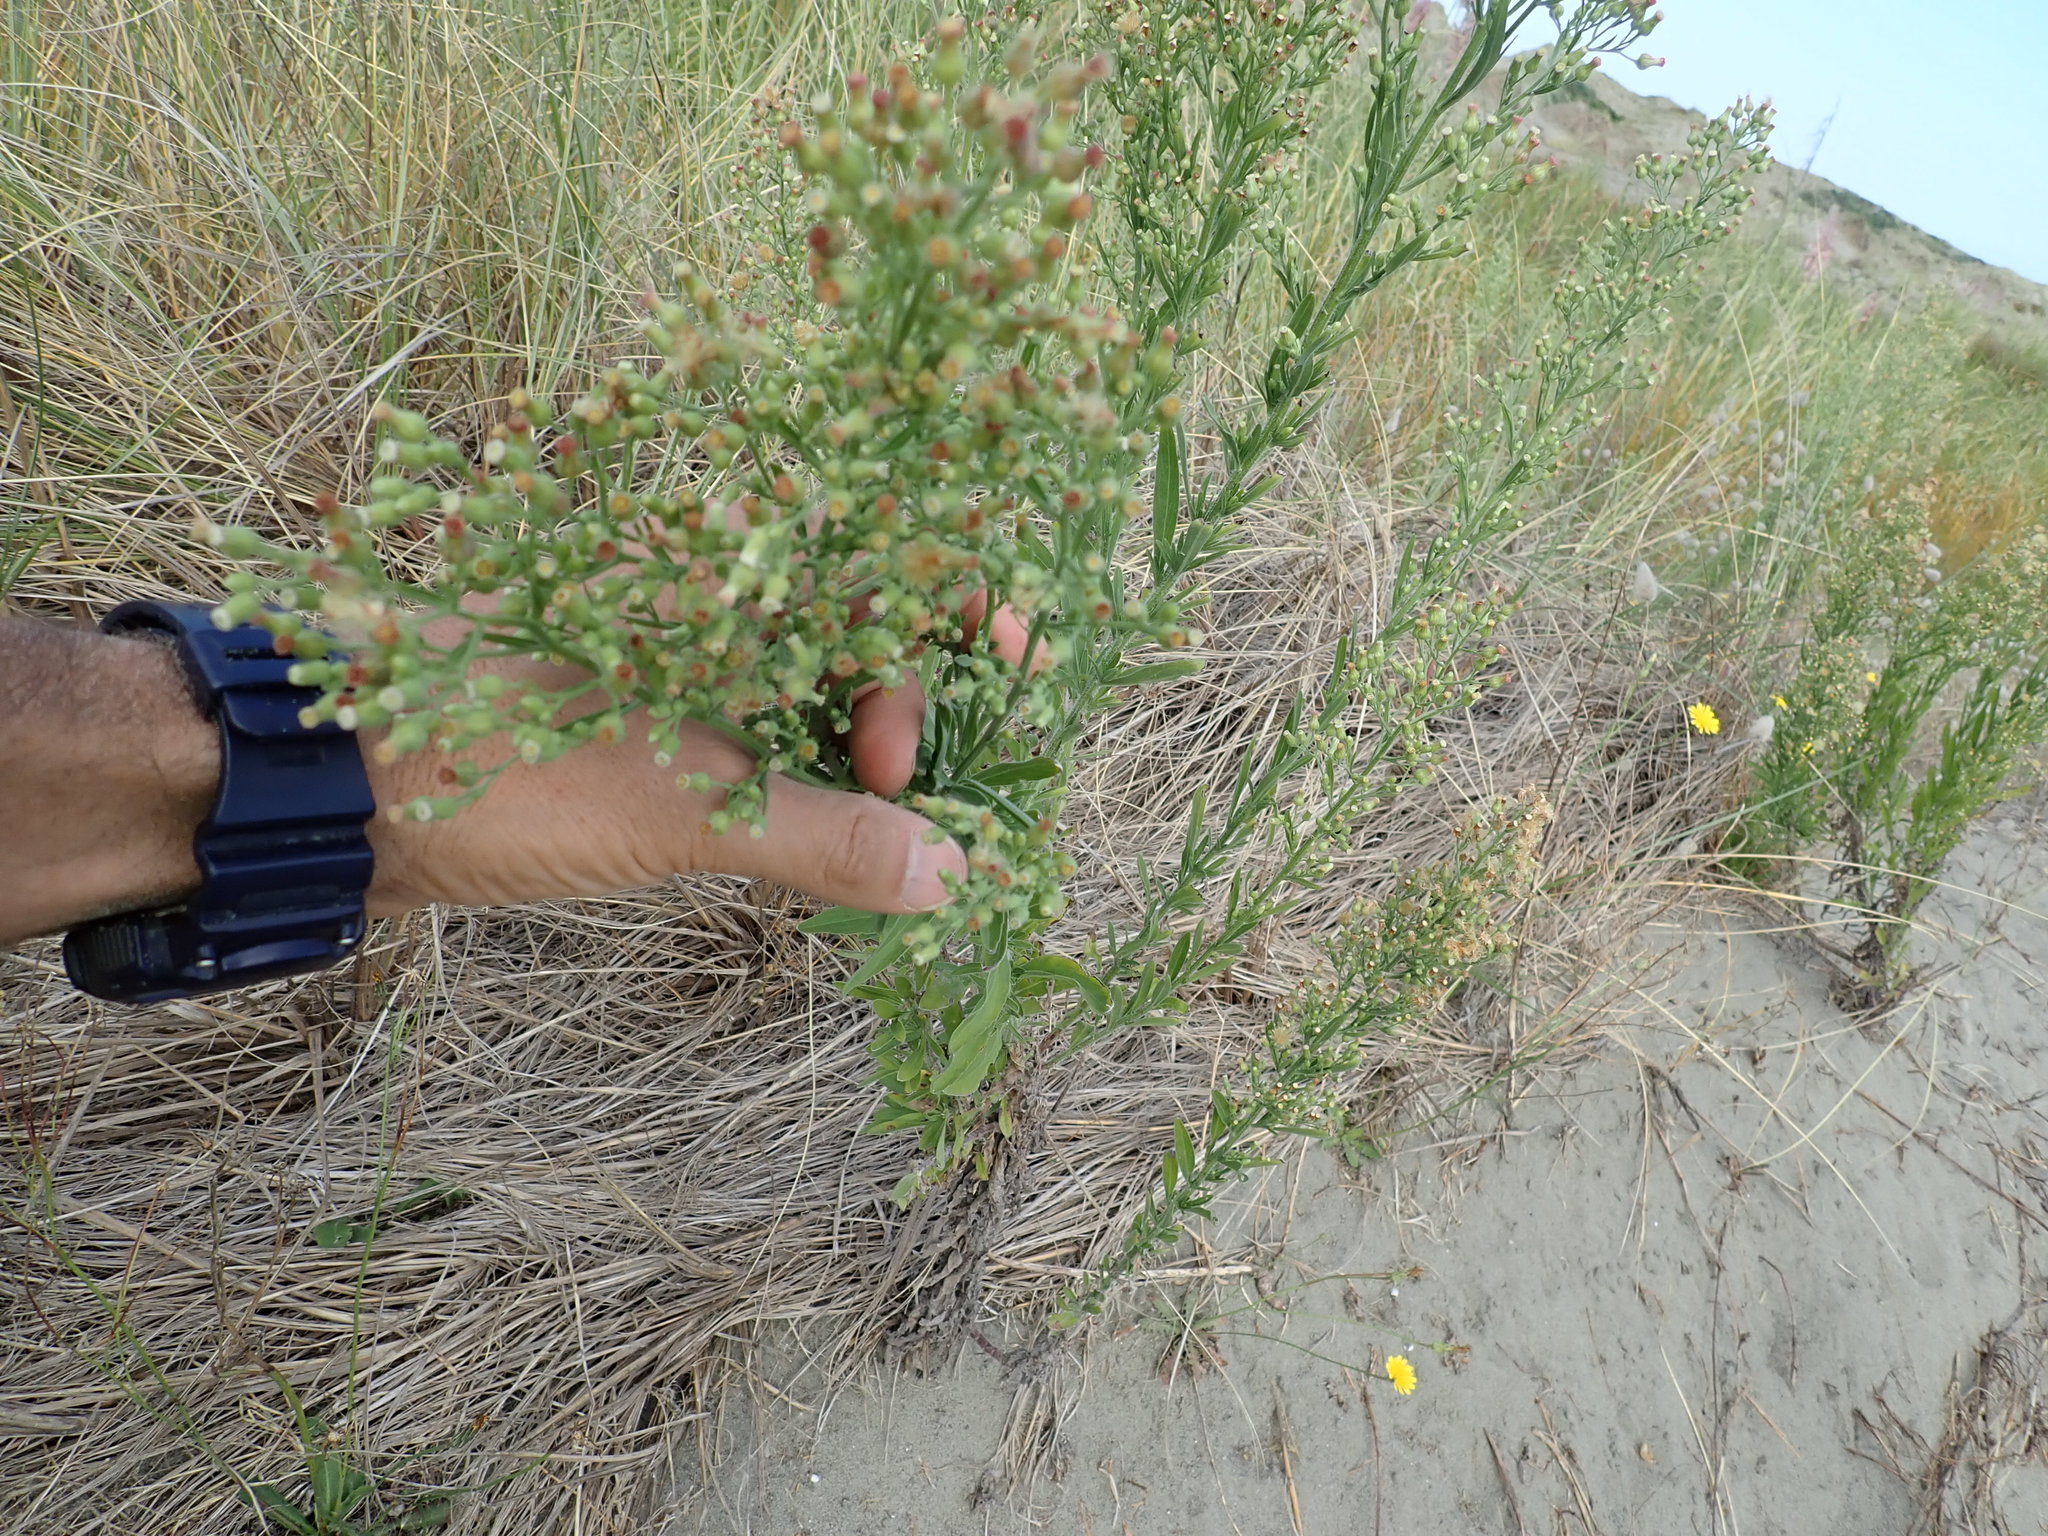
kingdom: Plantae
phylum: Tracheophyta
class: Magnoliopsida
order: Asterales
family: Asteraceae
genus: Erigeron
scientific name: Erigeron sumatrensis
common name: Daisy
